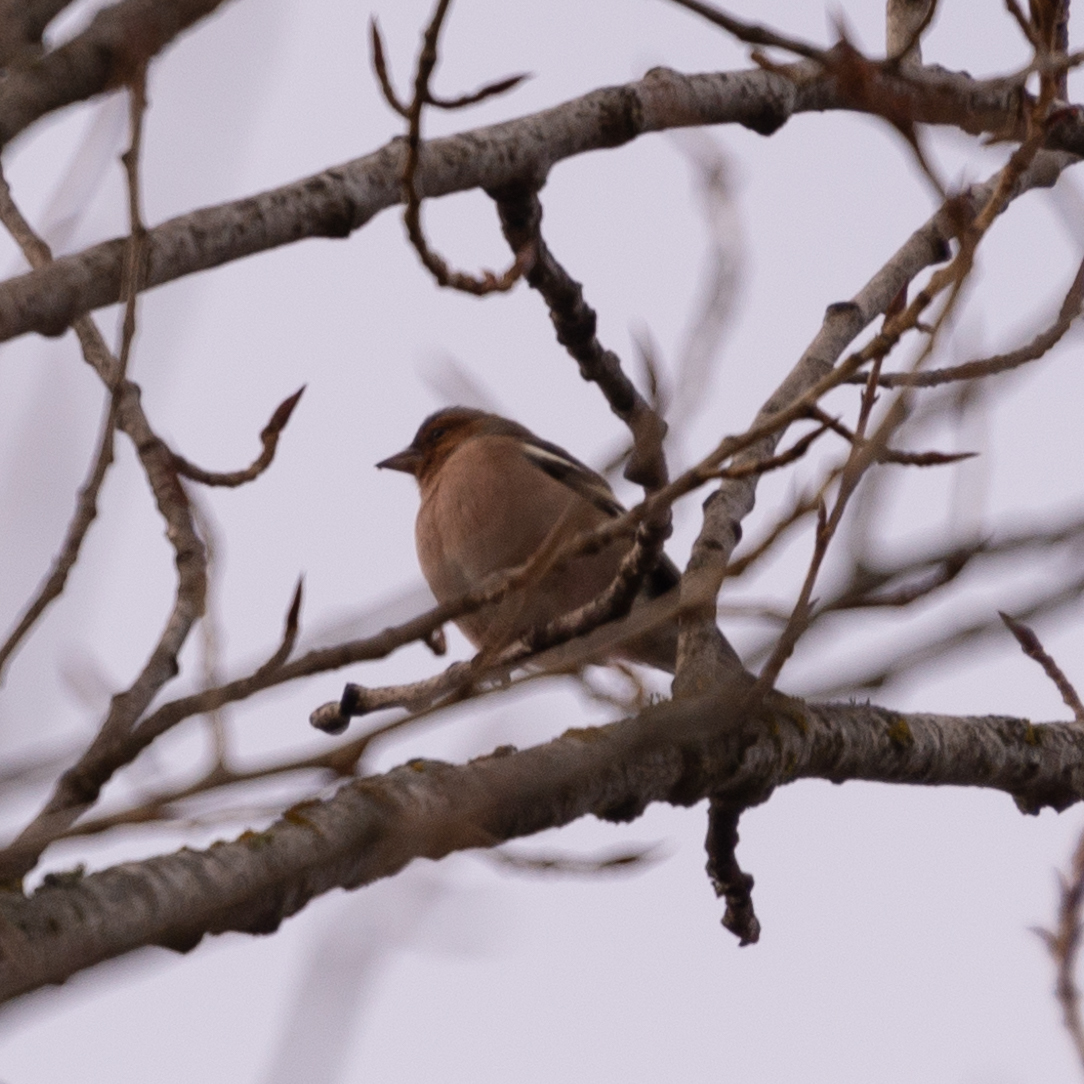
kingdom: Animalia
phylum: Chordata
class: Aves
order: Passeriformes
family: Fringillidae
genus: Fringilla
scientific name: Fringilla coelebs
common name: Common chaffinch
